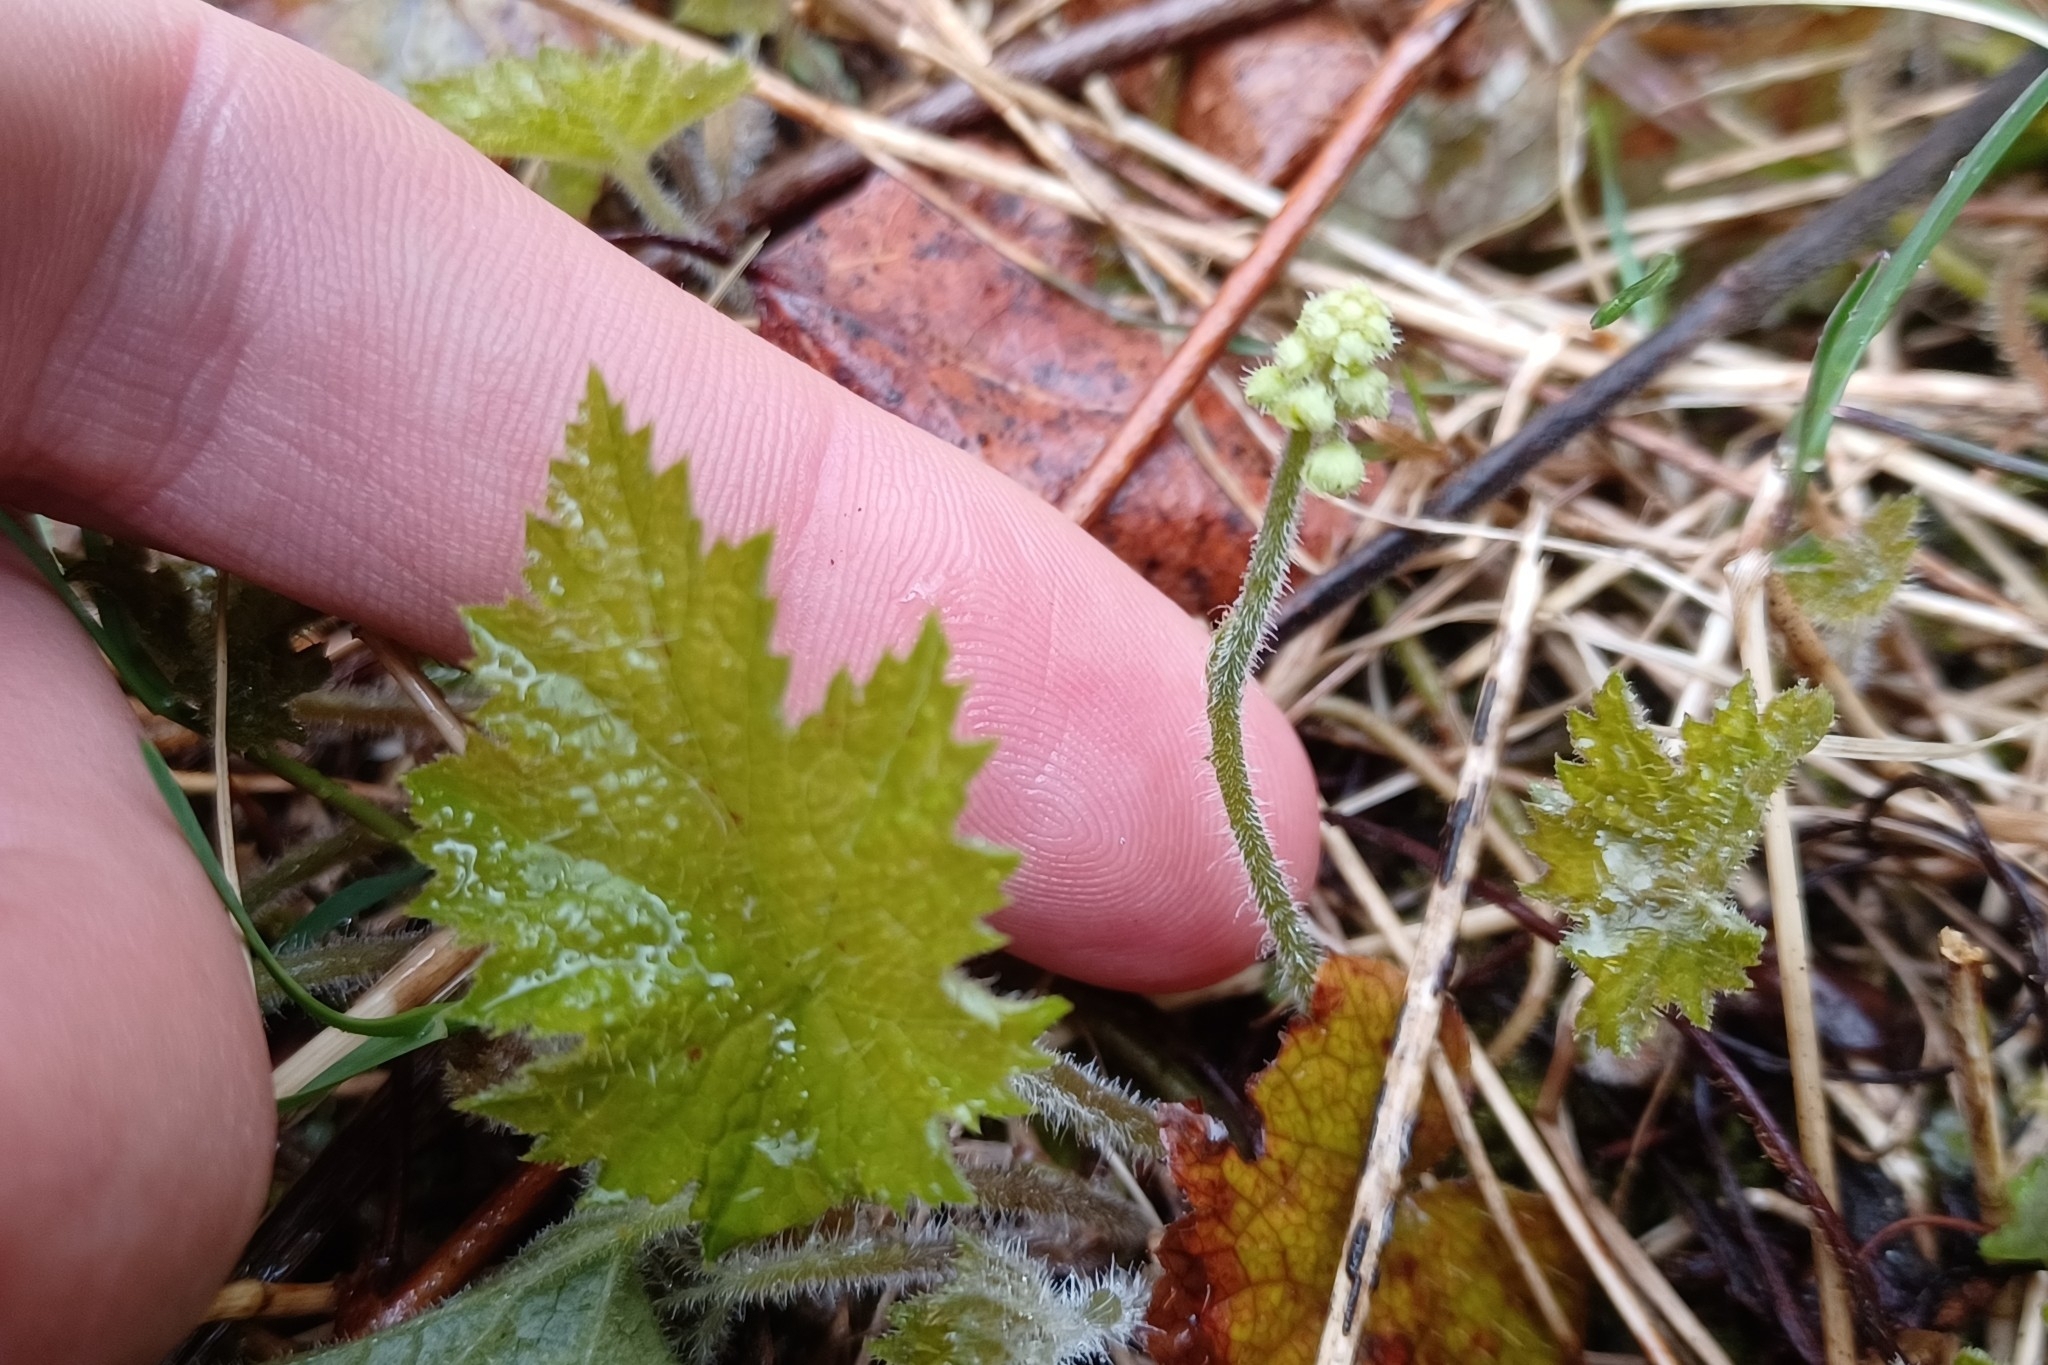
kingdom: Plantae
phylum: Tracheophyta
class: Magnoliopsida
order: Saxifragales
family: Saxifragaceae
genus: Tiarella
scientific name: Tiarella stolonifera
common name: Stoloniferous foamflower
